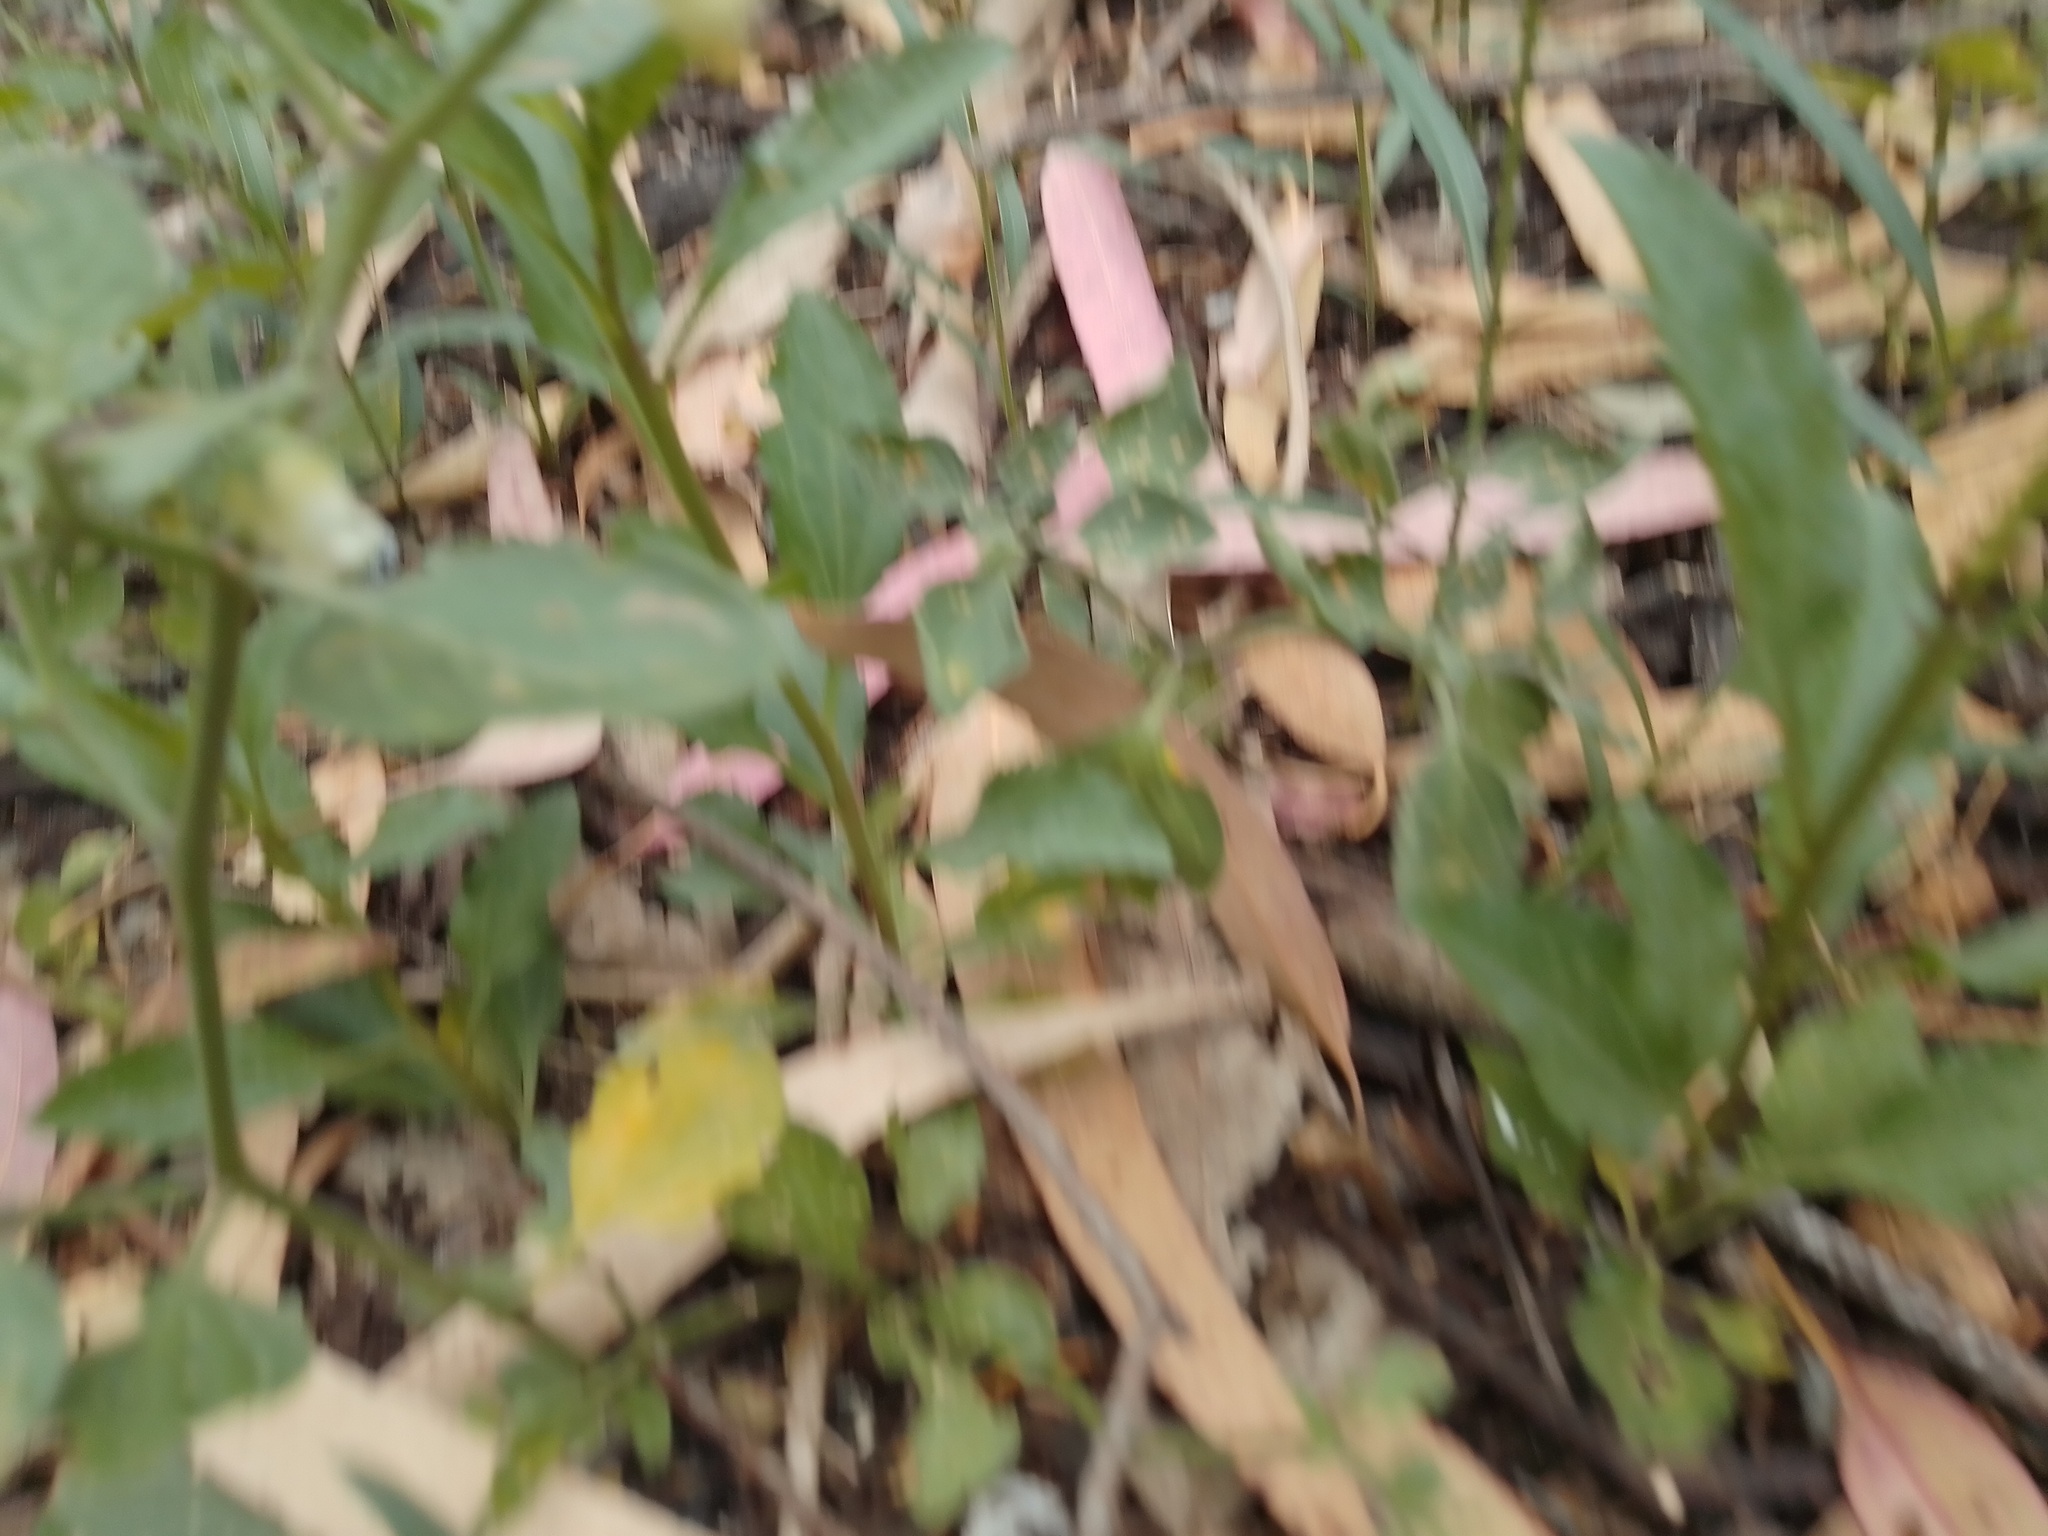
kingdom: Plantae
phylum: Tracheophyta
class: Magnoliopsida
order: Solanales
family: Solanaceae
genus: Salpichroa
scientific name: Salpichroa origanifolia
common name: Lily-of-the-valley-vine
